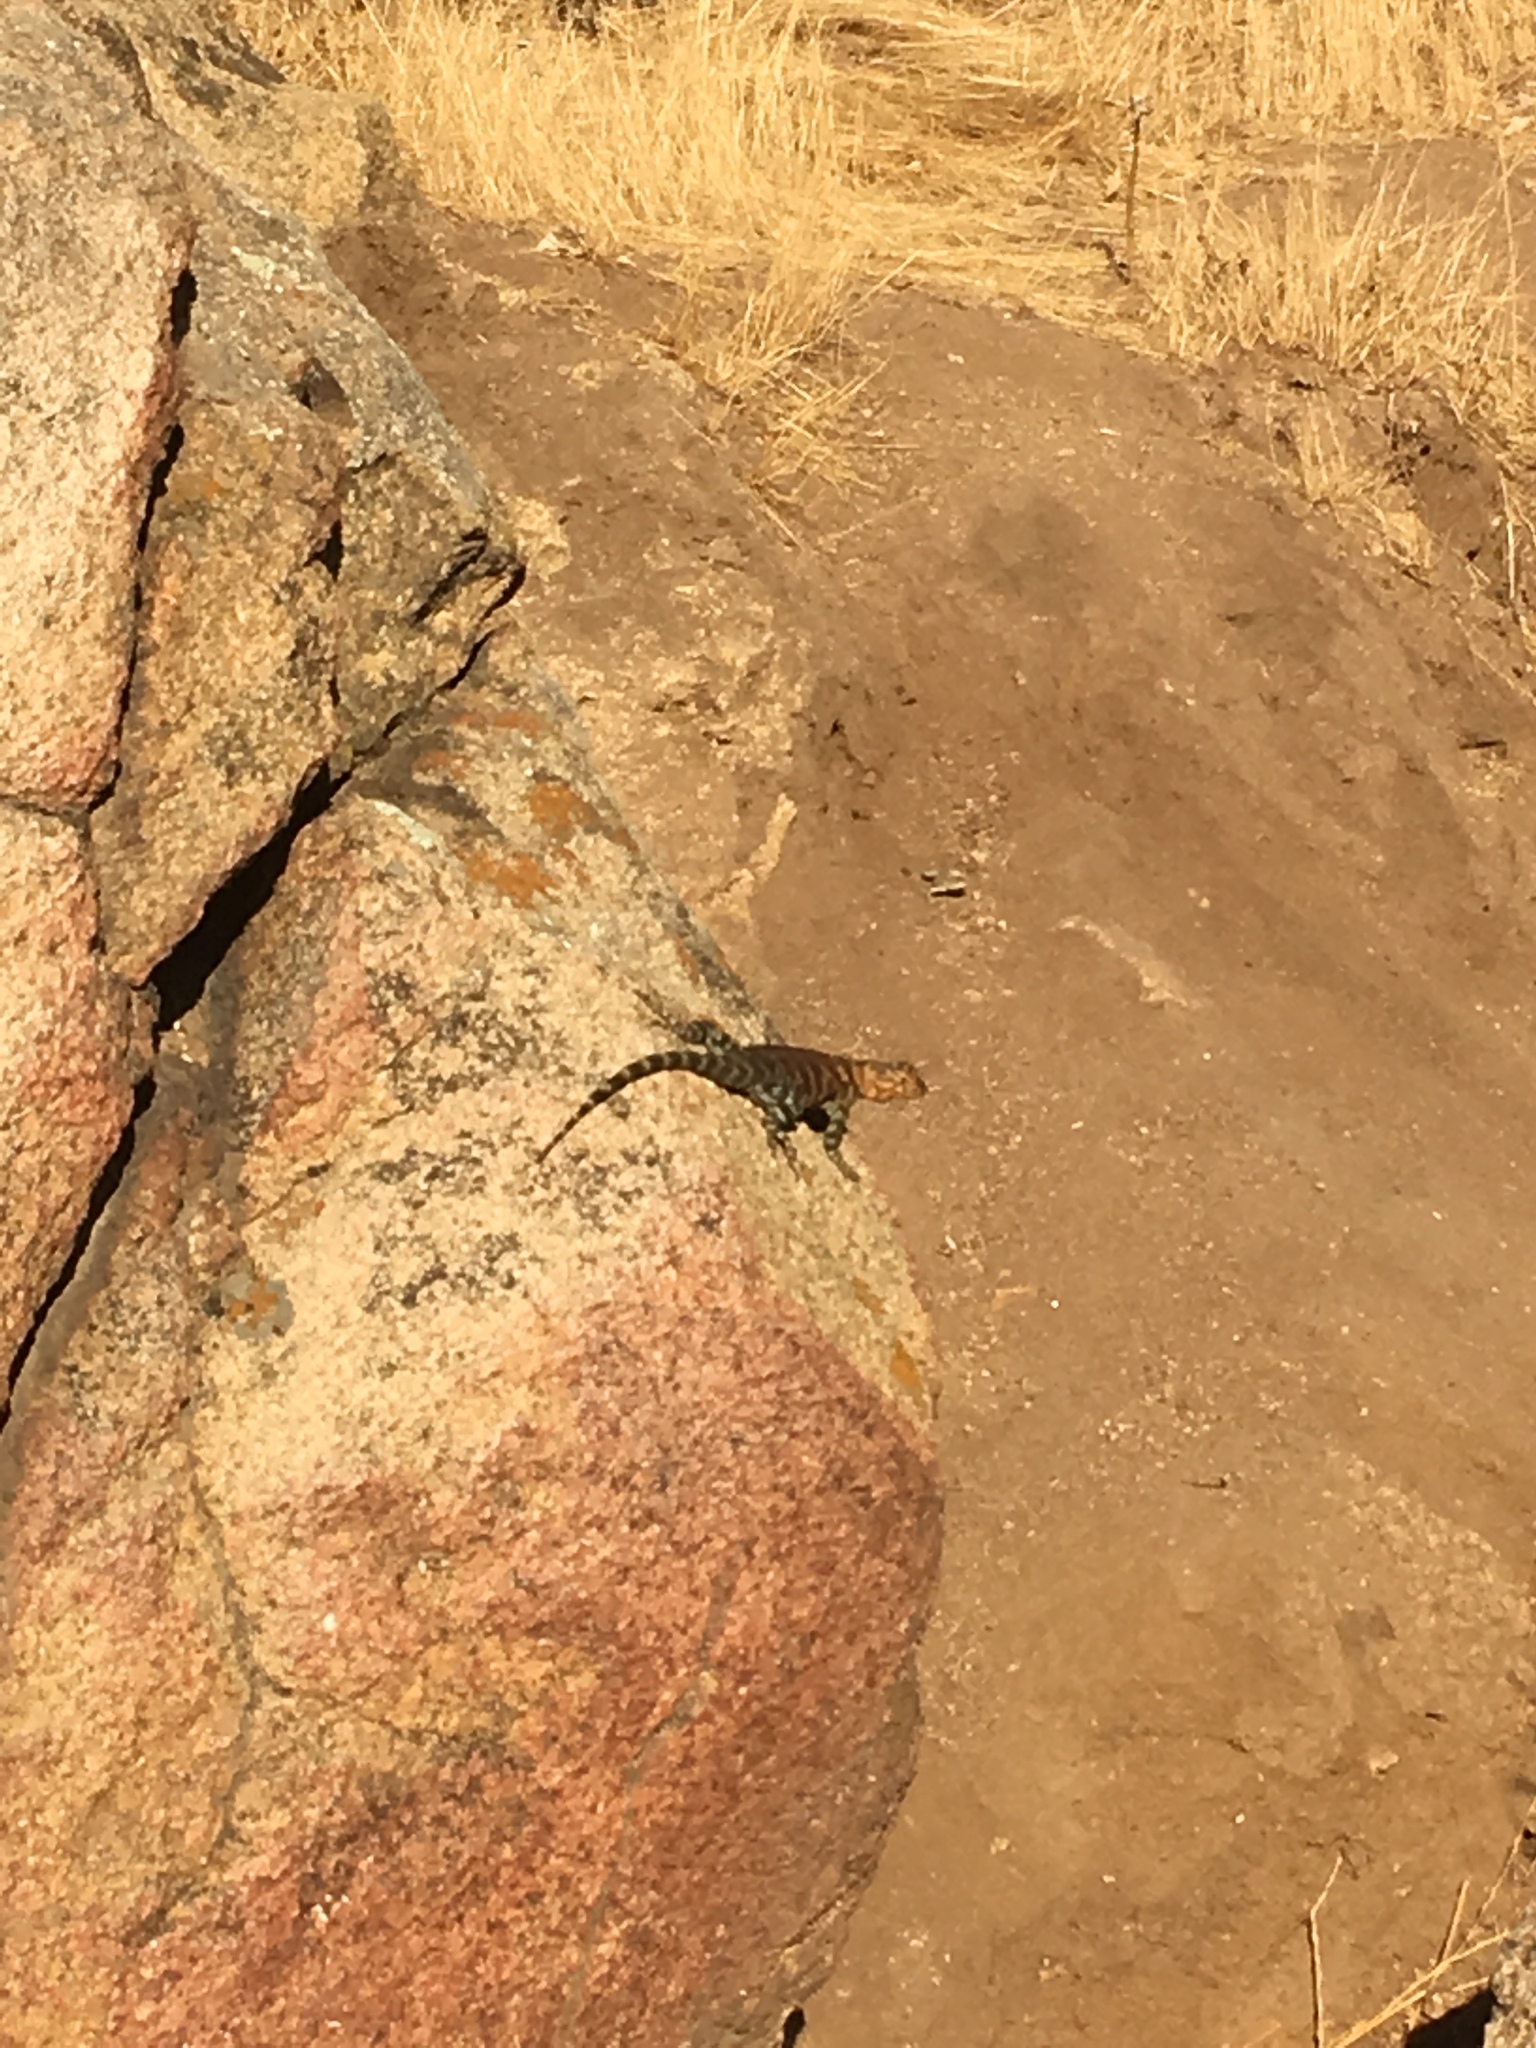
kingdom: Animalia
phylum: Chordata
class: Squamata
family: Phrynosomatidae
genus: Sceloporus
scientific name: Sceloporus orcutti
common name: Granite spiny lizard
